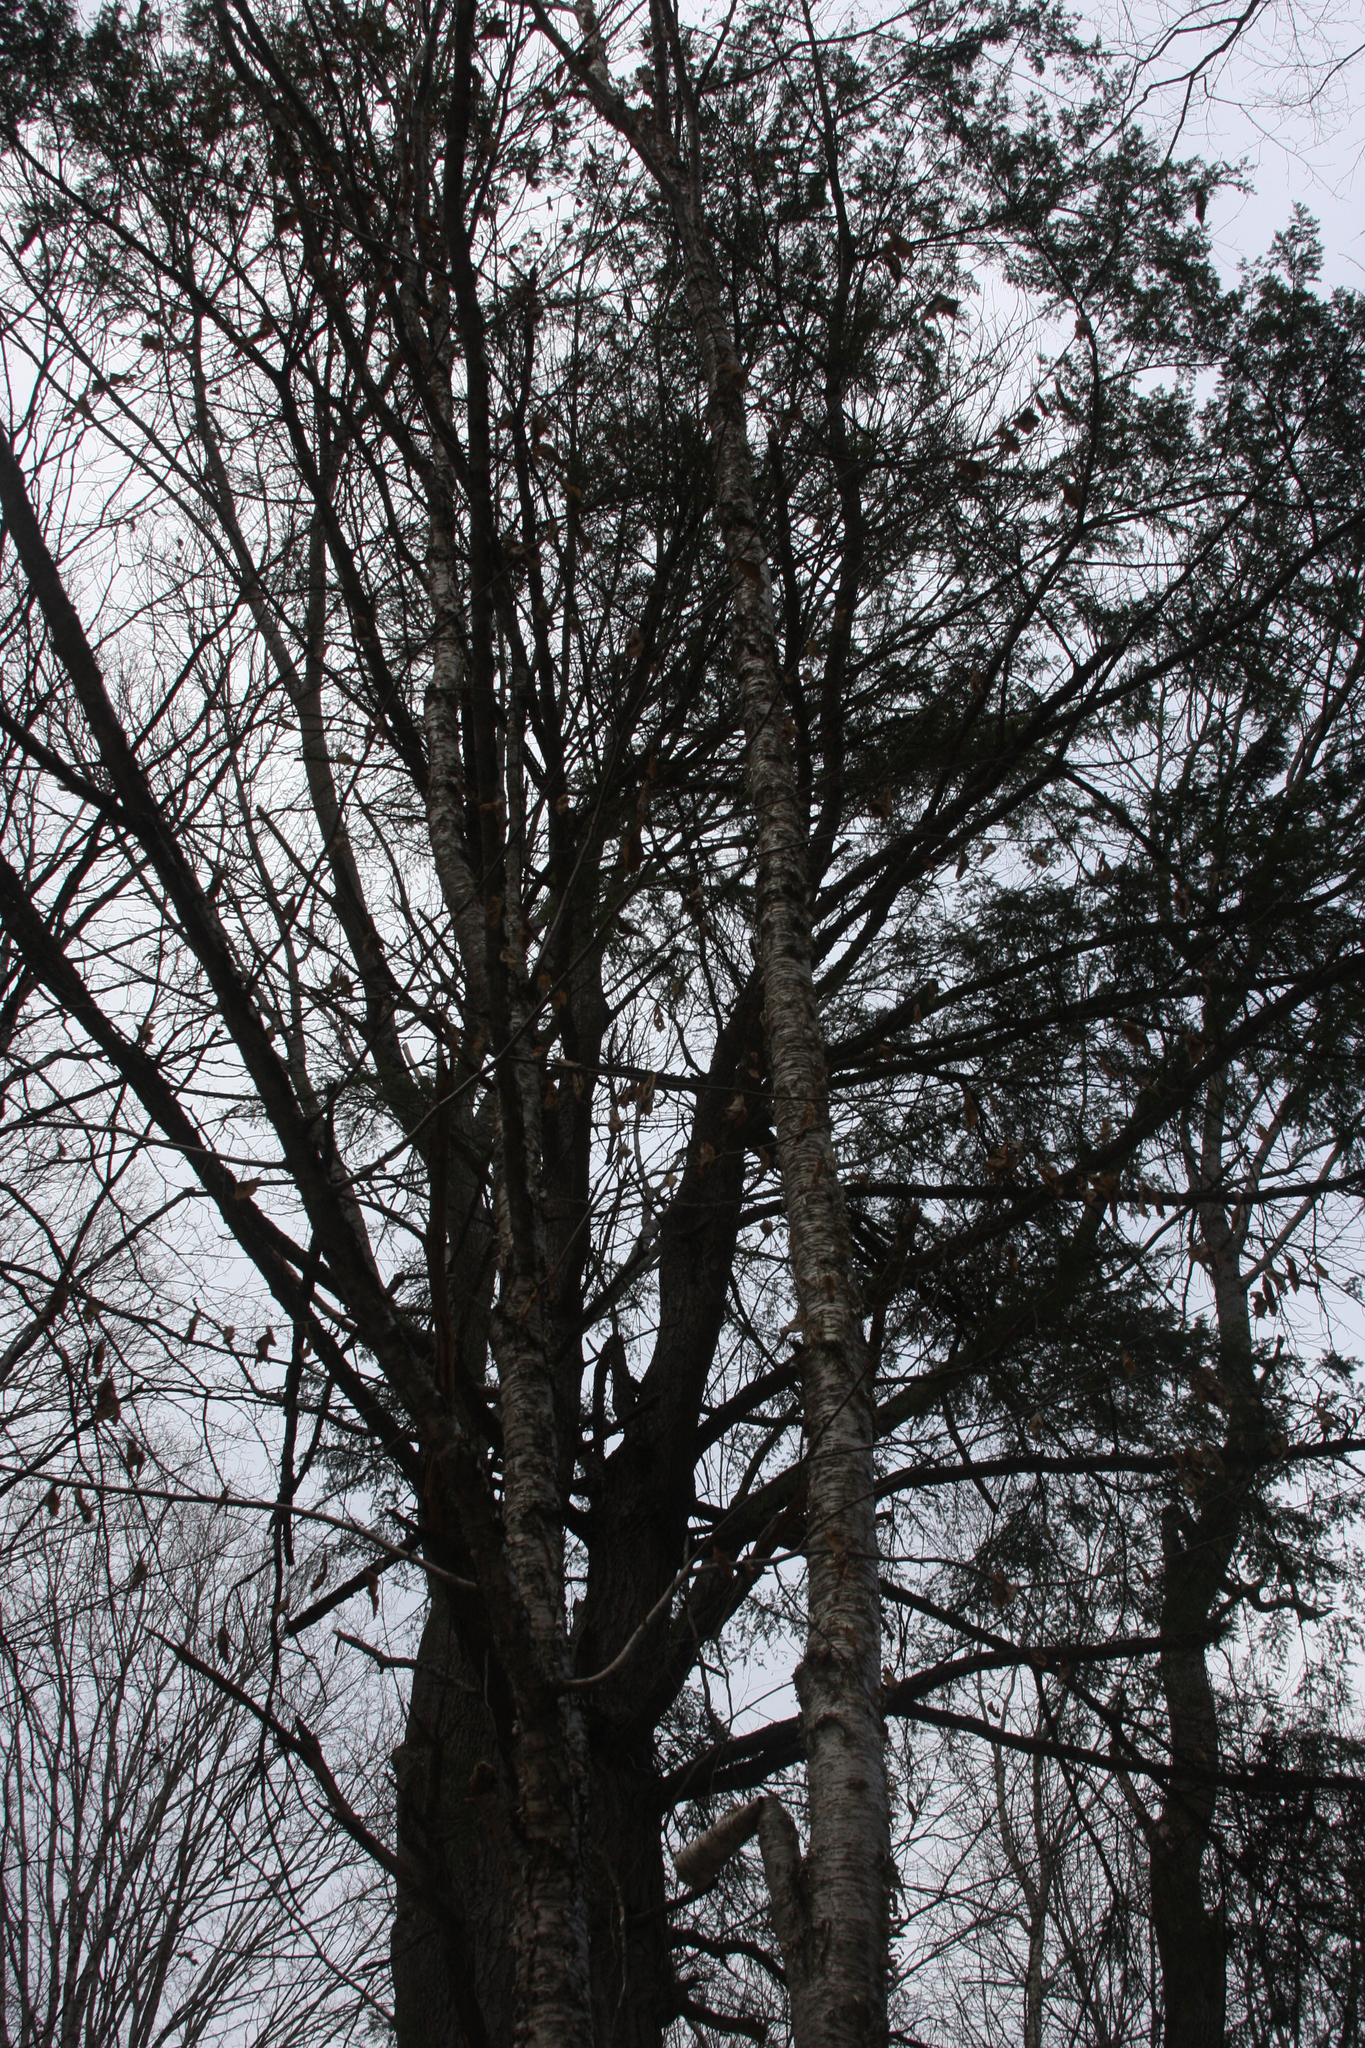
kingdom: Plantae
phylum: Tracheophyta
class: Magnoliopsida
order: Fagales
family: Betulaceae
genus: Betula
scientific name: Betula alleghaniensis
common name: Yellow birch
